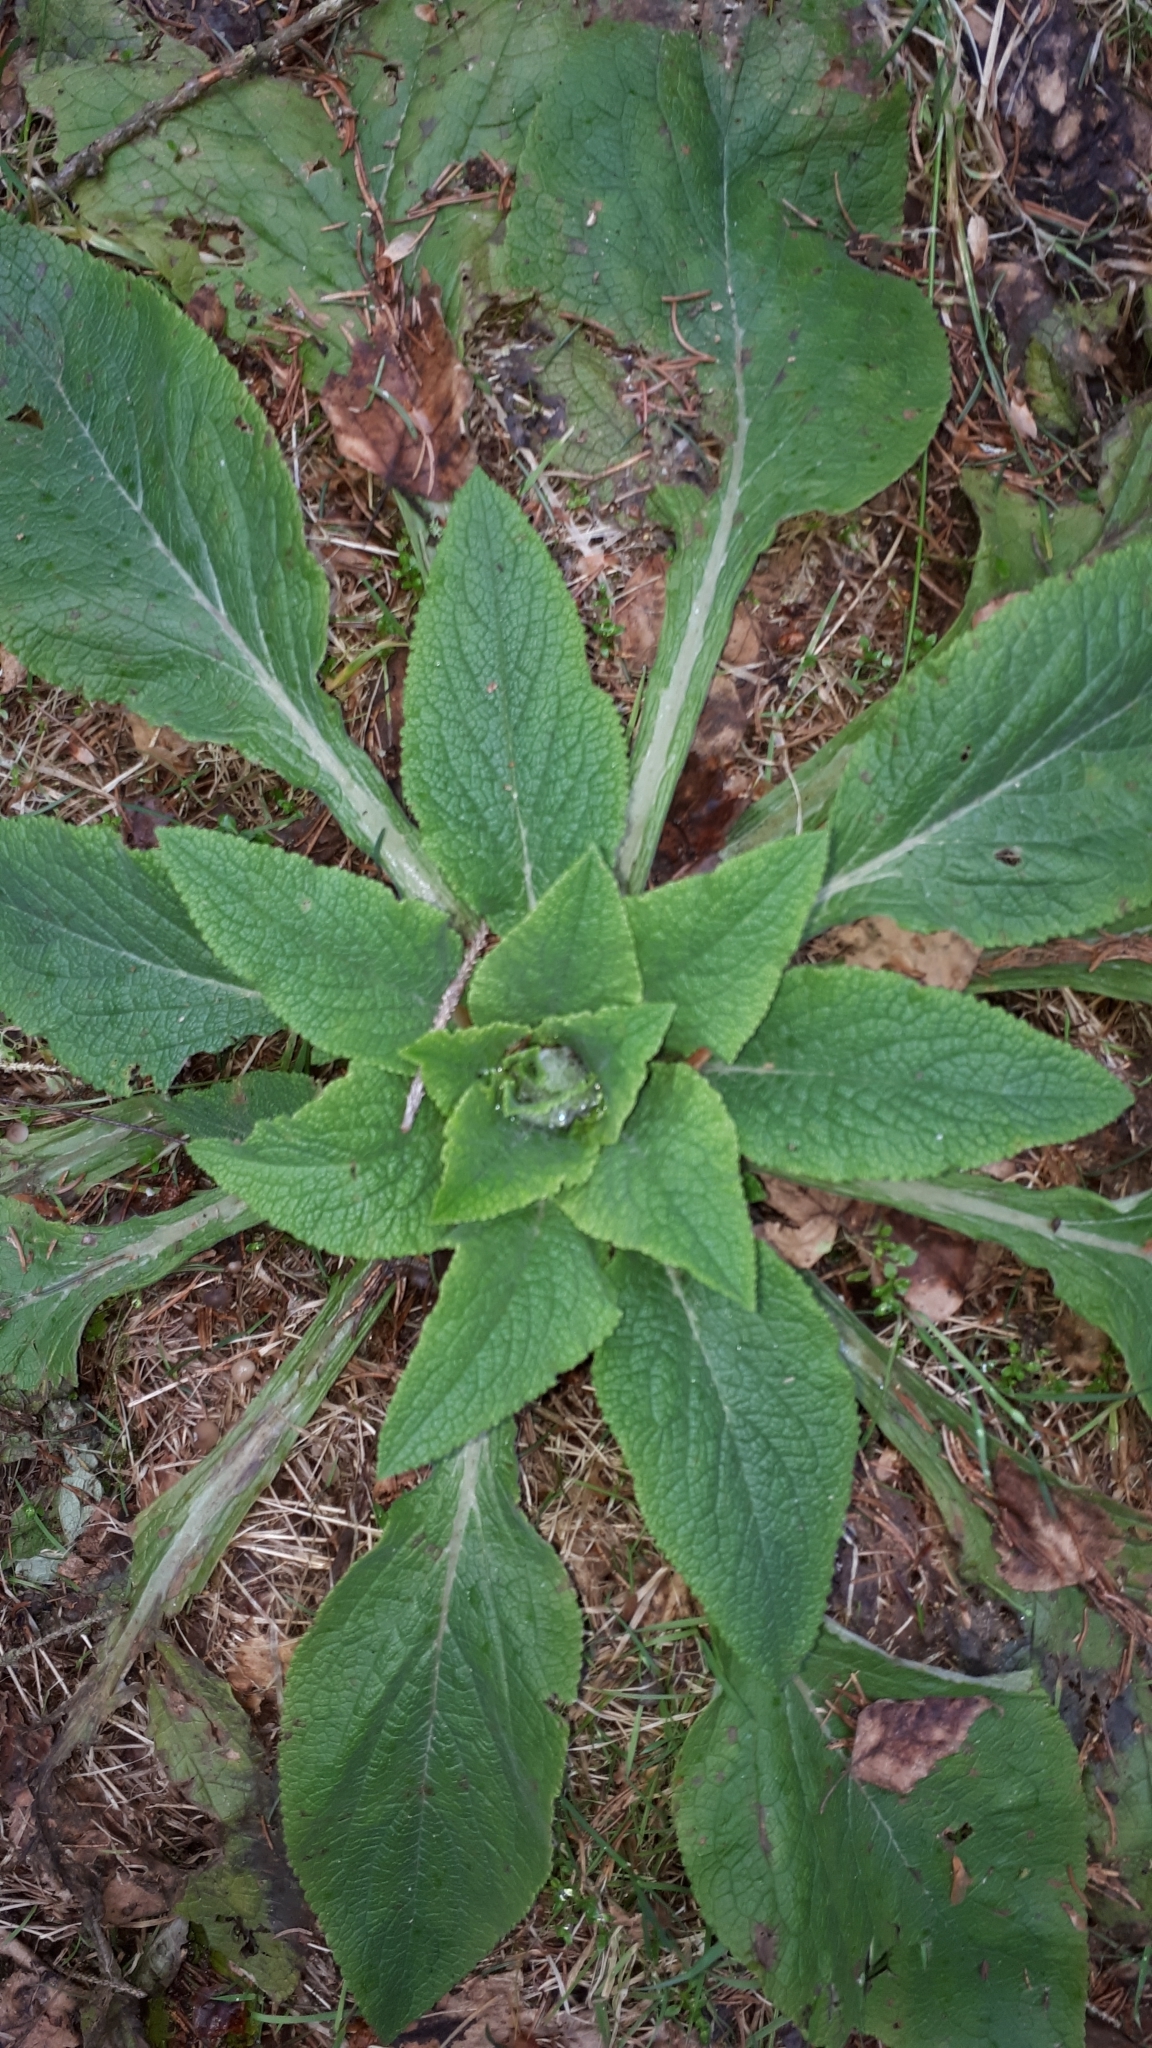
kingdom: Plantae
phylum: Tracheophyta
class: Magnoliopsida
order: Lamiales
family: Plantaginaceae
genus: Digitalis
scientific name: Digitalis purpurea
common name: Foxglove
